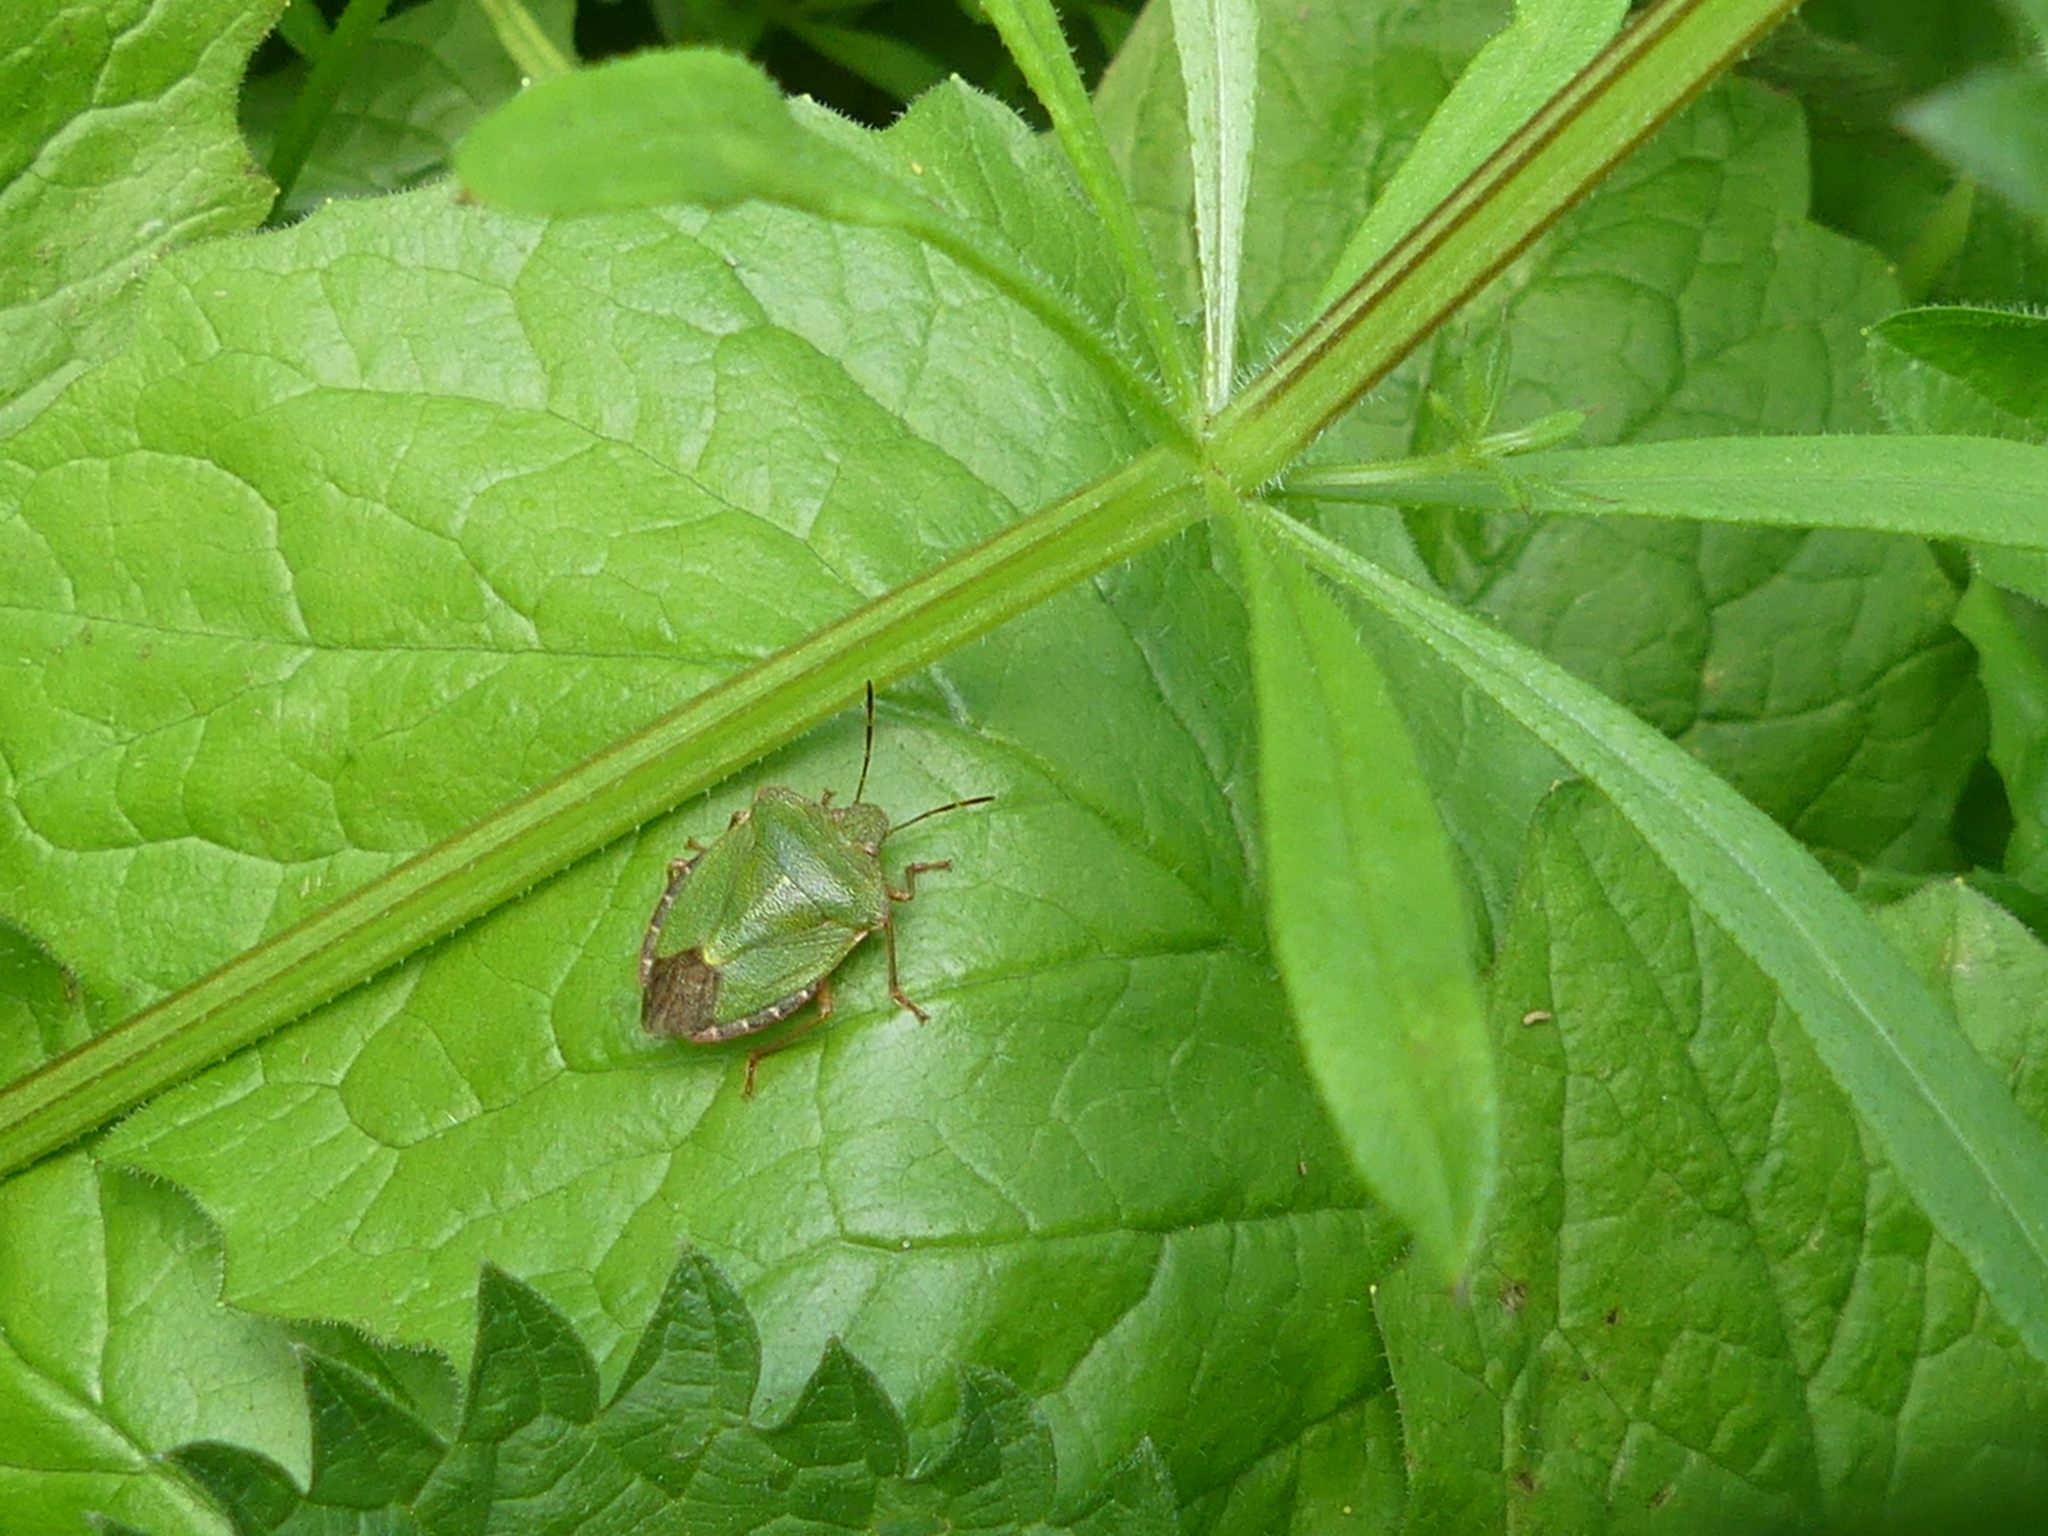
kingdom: Animalia
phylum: Arthropoda
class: Insecta
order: Hemiptera
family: Pentatomidae
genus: Palomena
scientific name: Palomena prasina
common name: Green shieldbug
